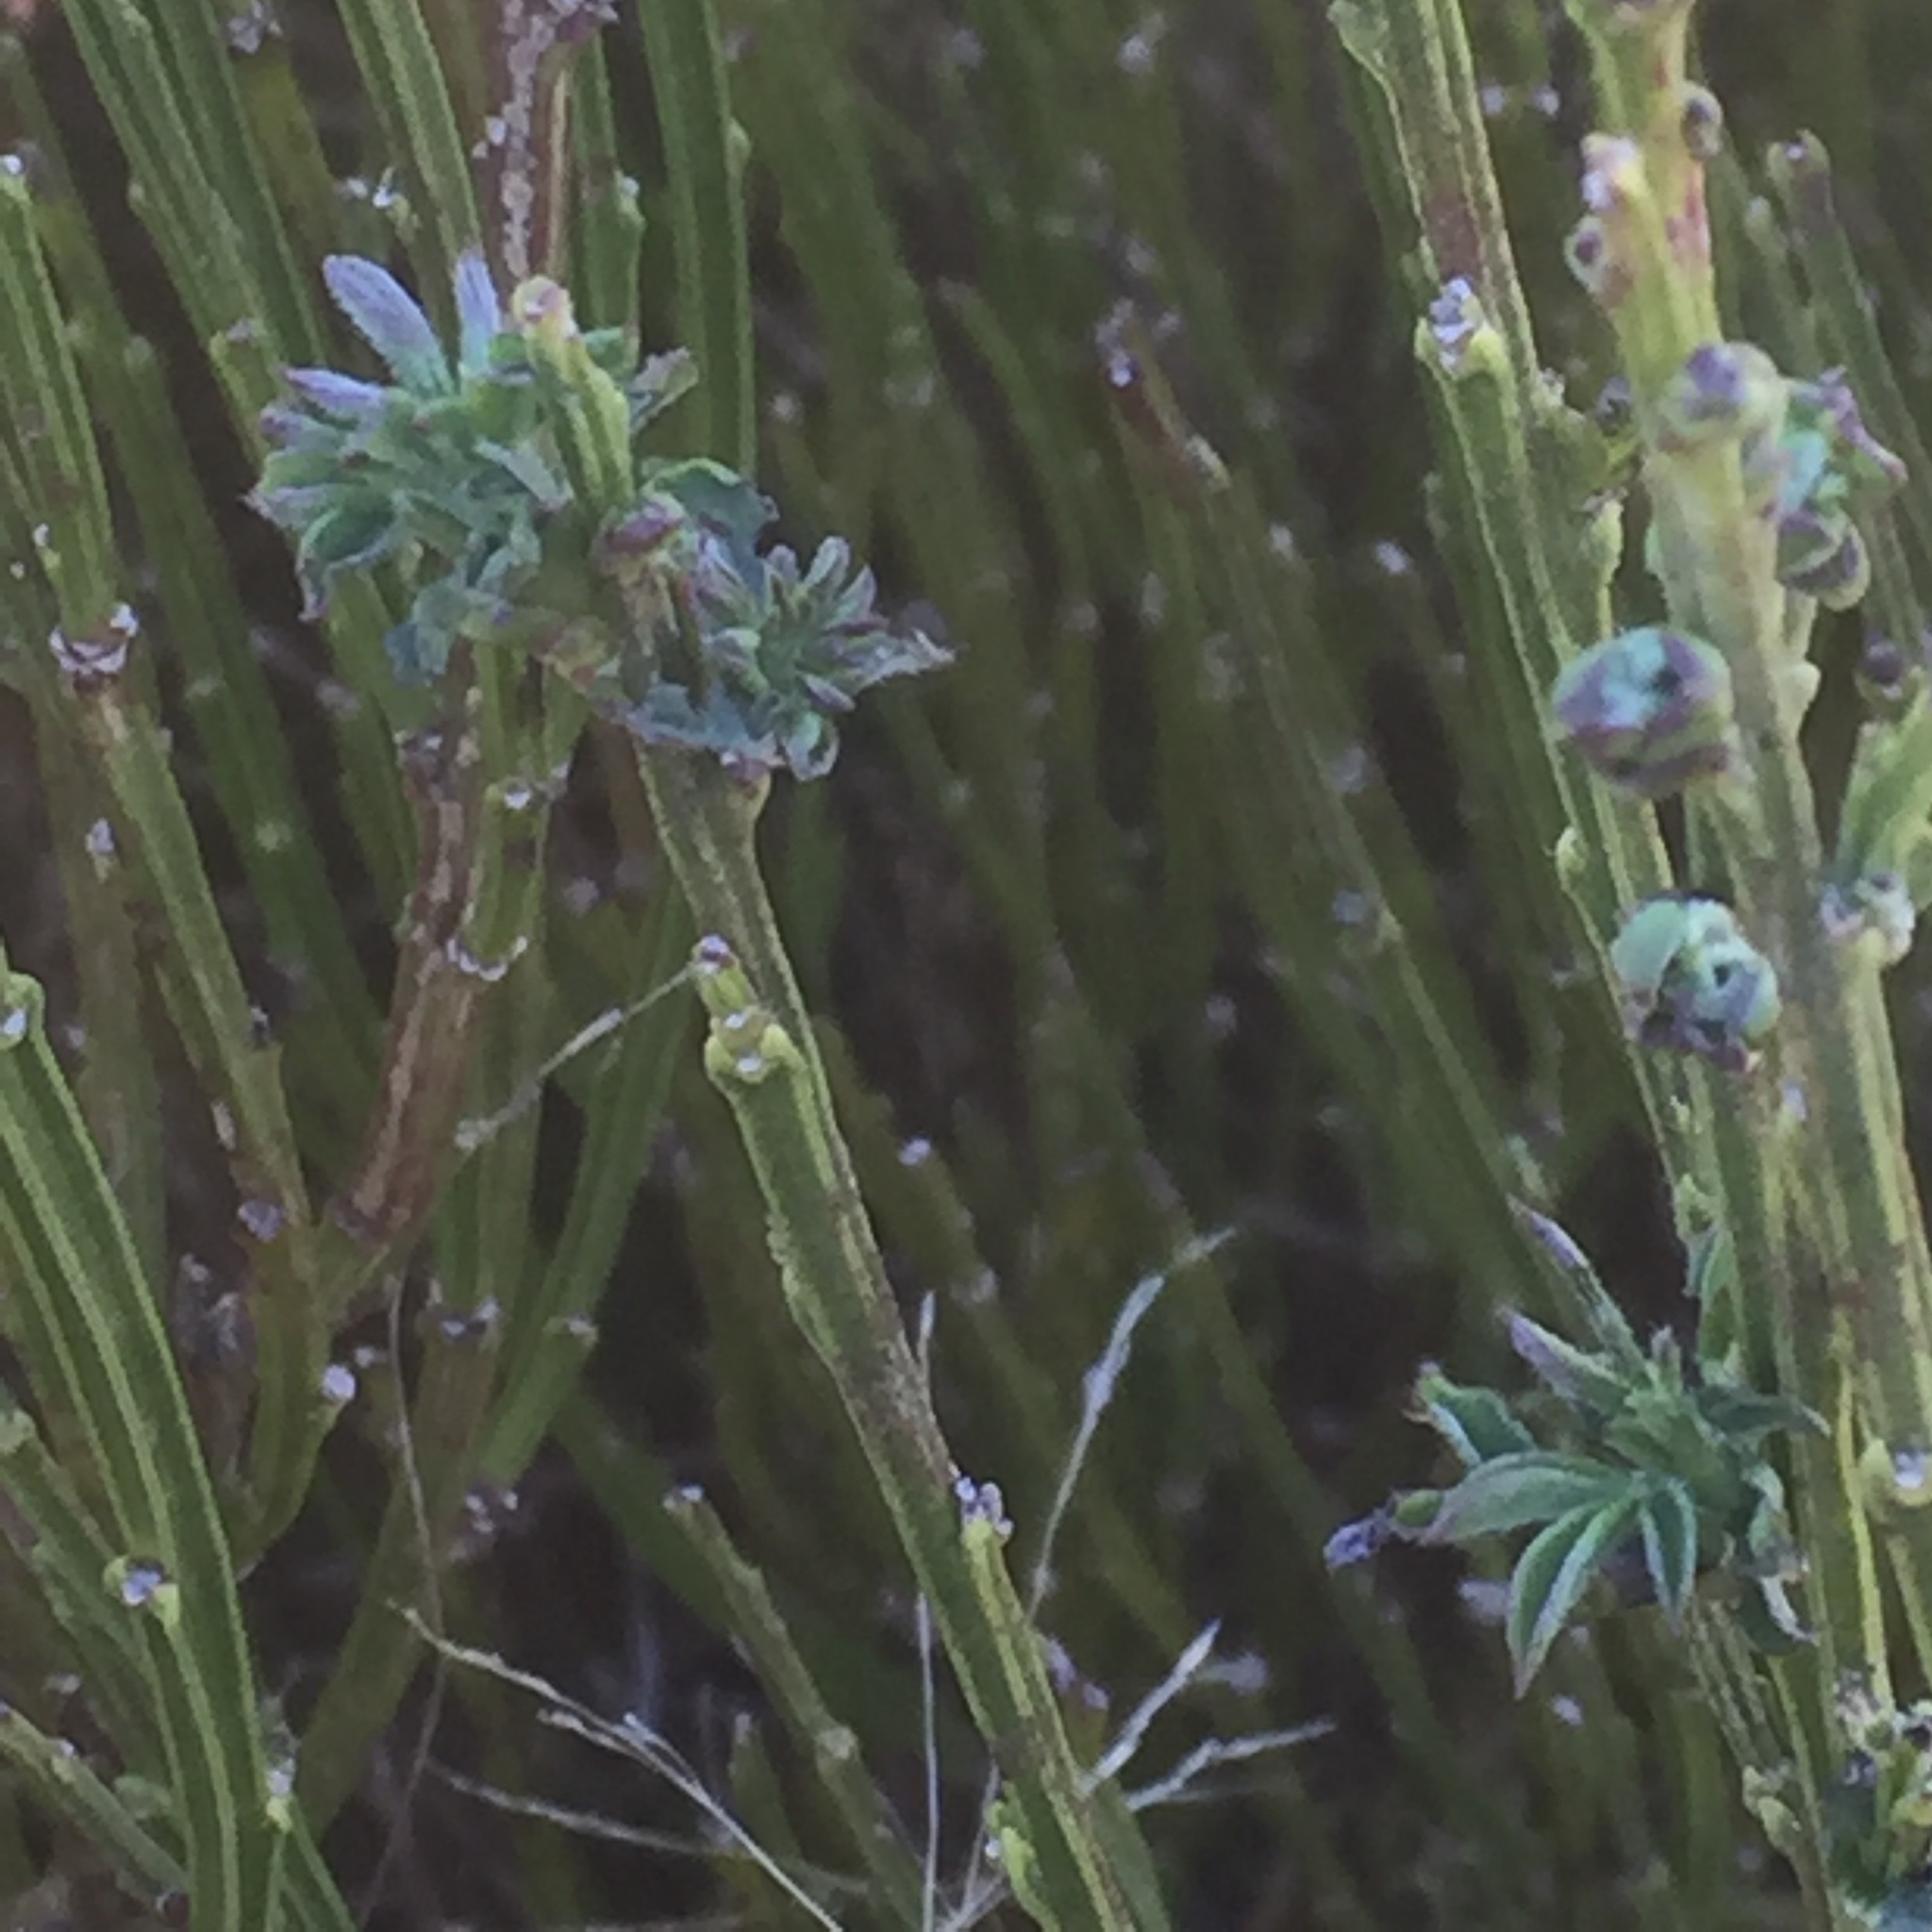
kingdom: Plantae
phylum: Tracheophyta
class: Magnoliopsida
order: Fabales
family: Fabaceae
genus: Cytisus
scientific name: Cytisus scoparius
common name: Scotch broom
